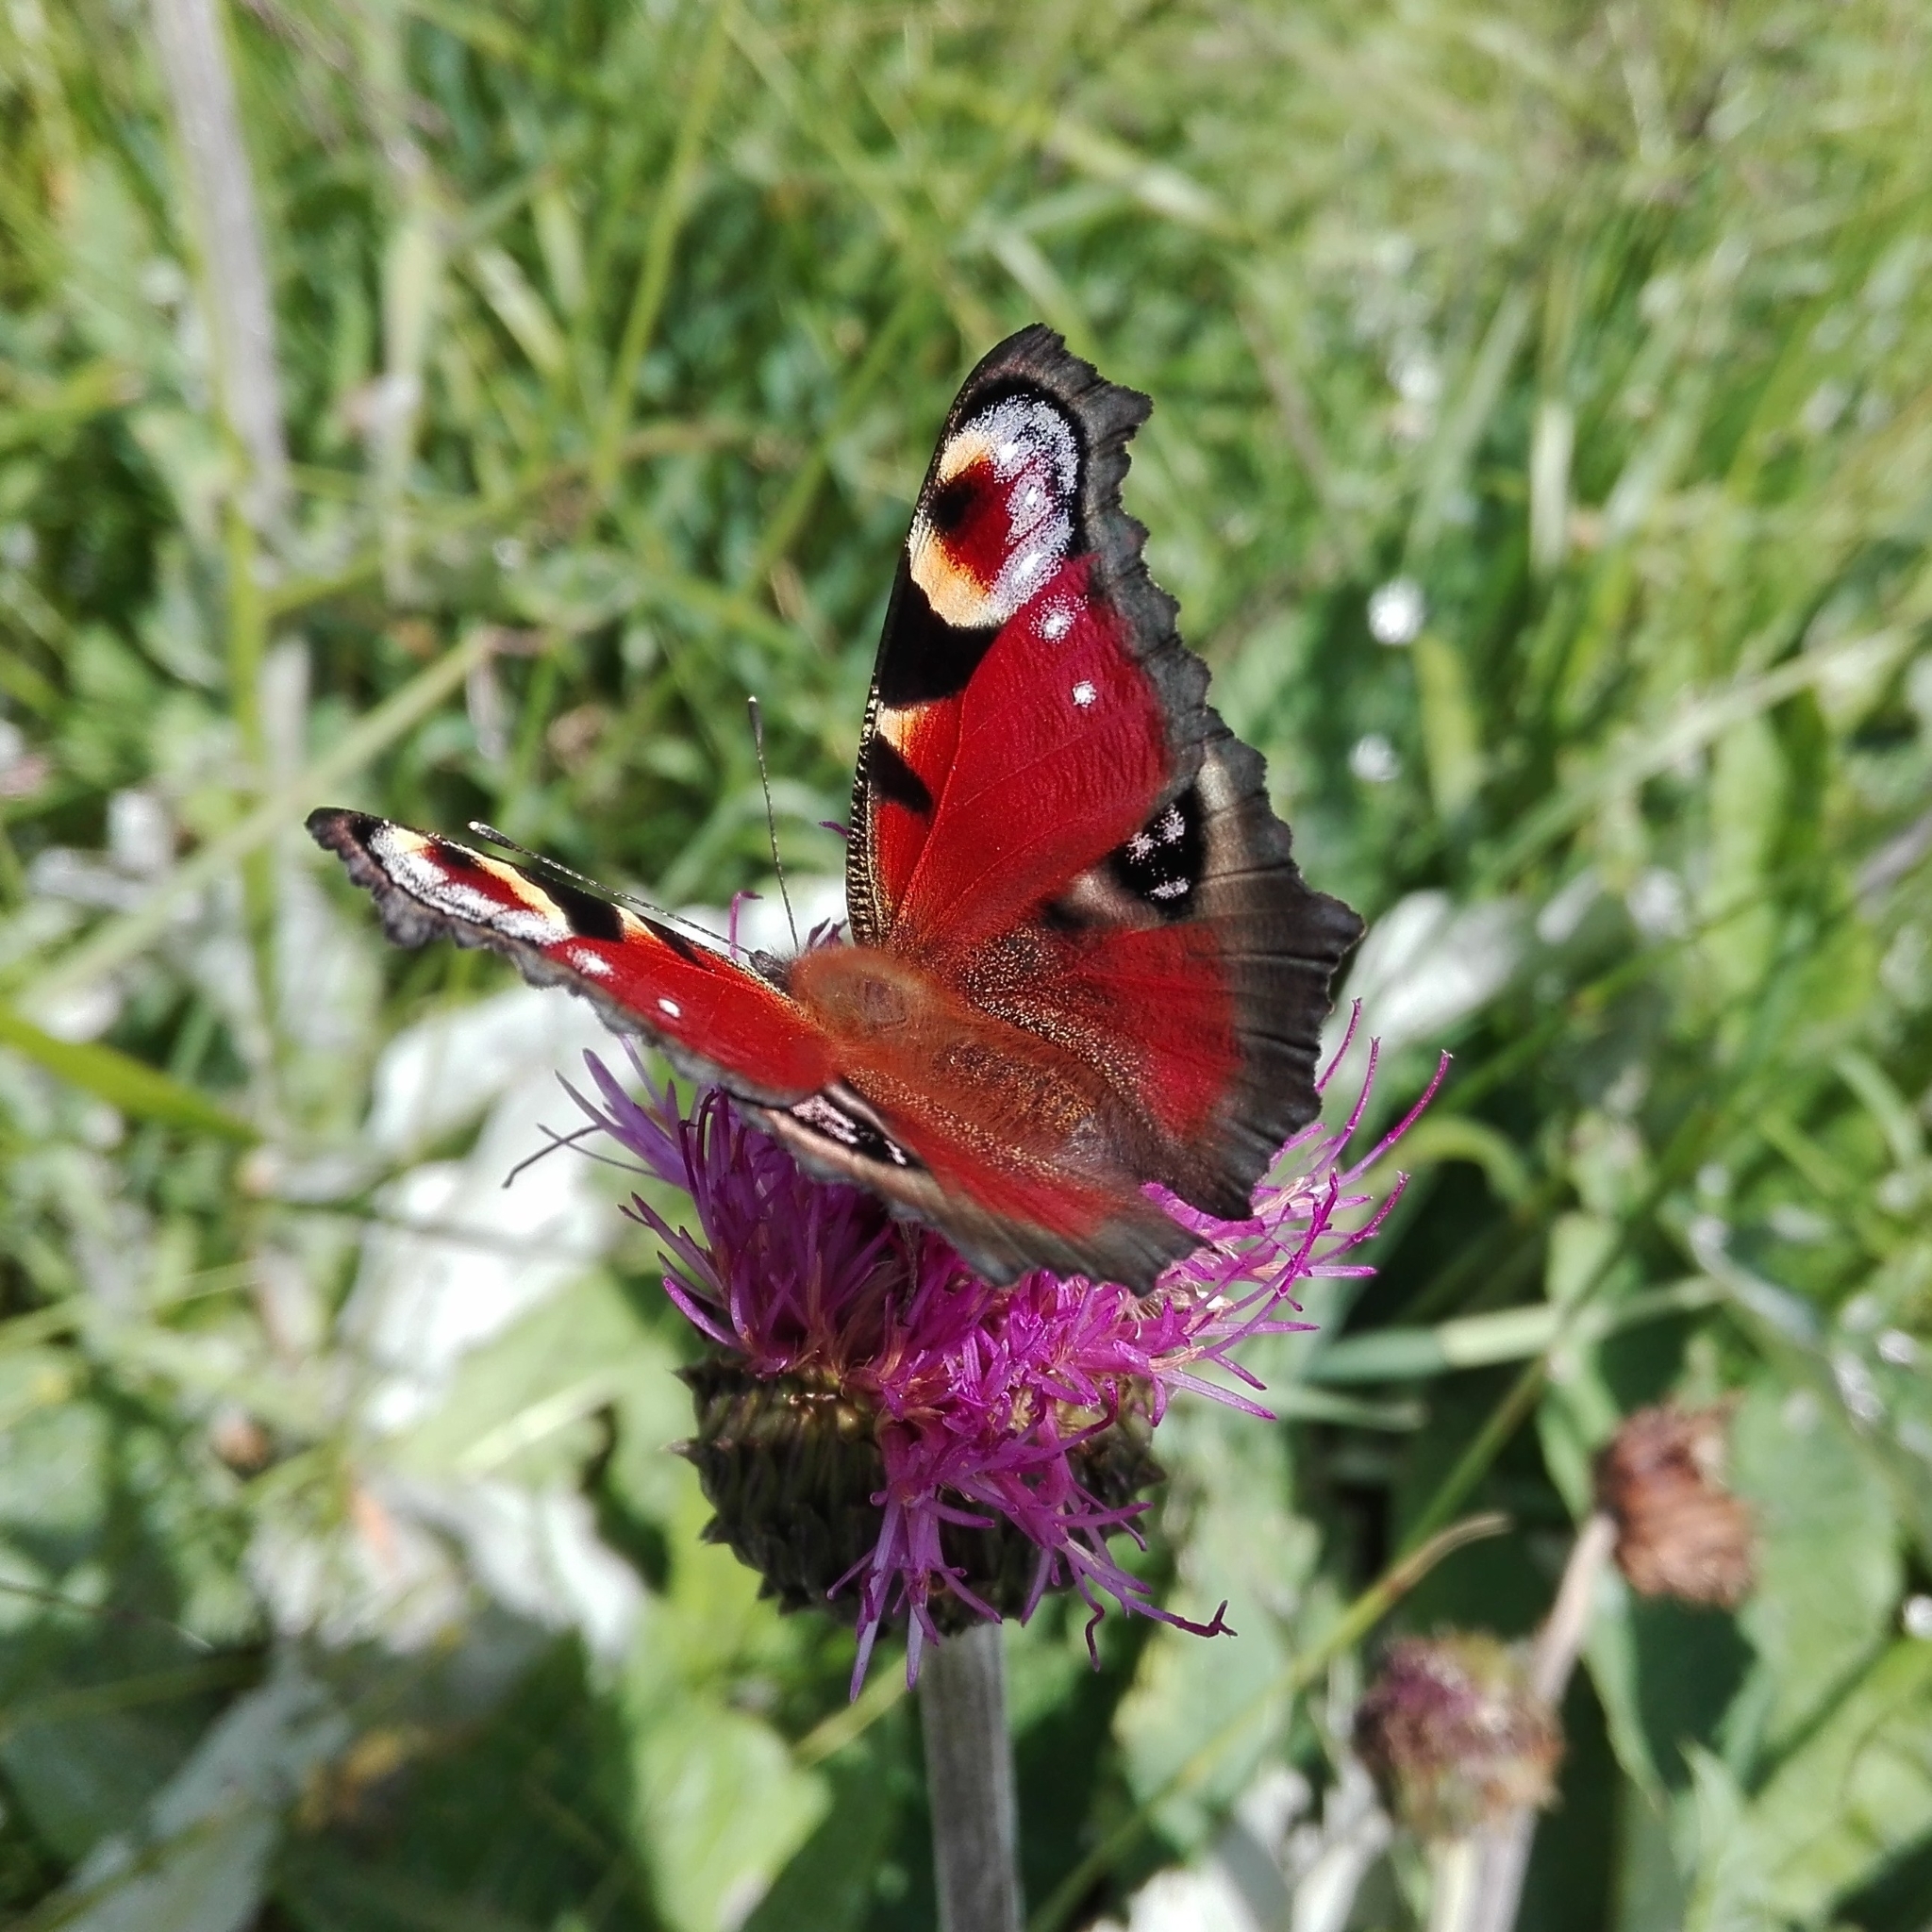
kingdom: Animalia
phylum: Arthropoda
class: Insecta
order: Lepidoptera
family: Nymphalidae
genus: Aglais
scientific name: Aglais io
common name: Peacock
